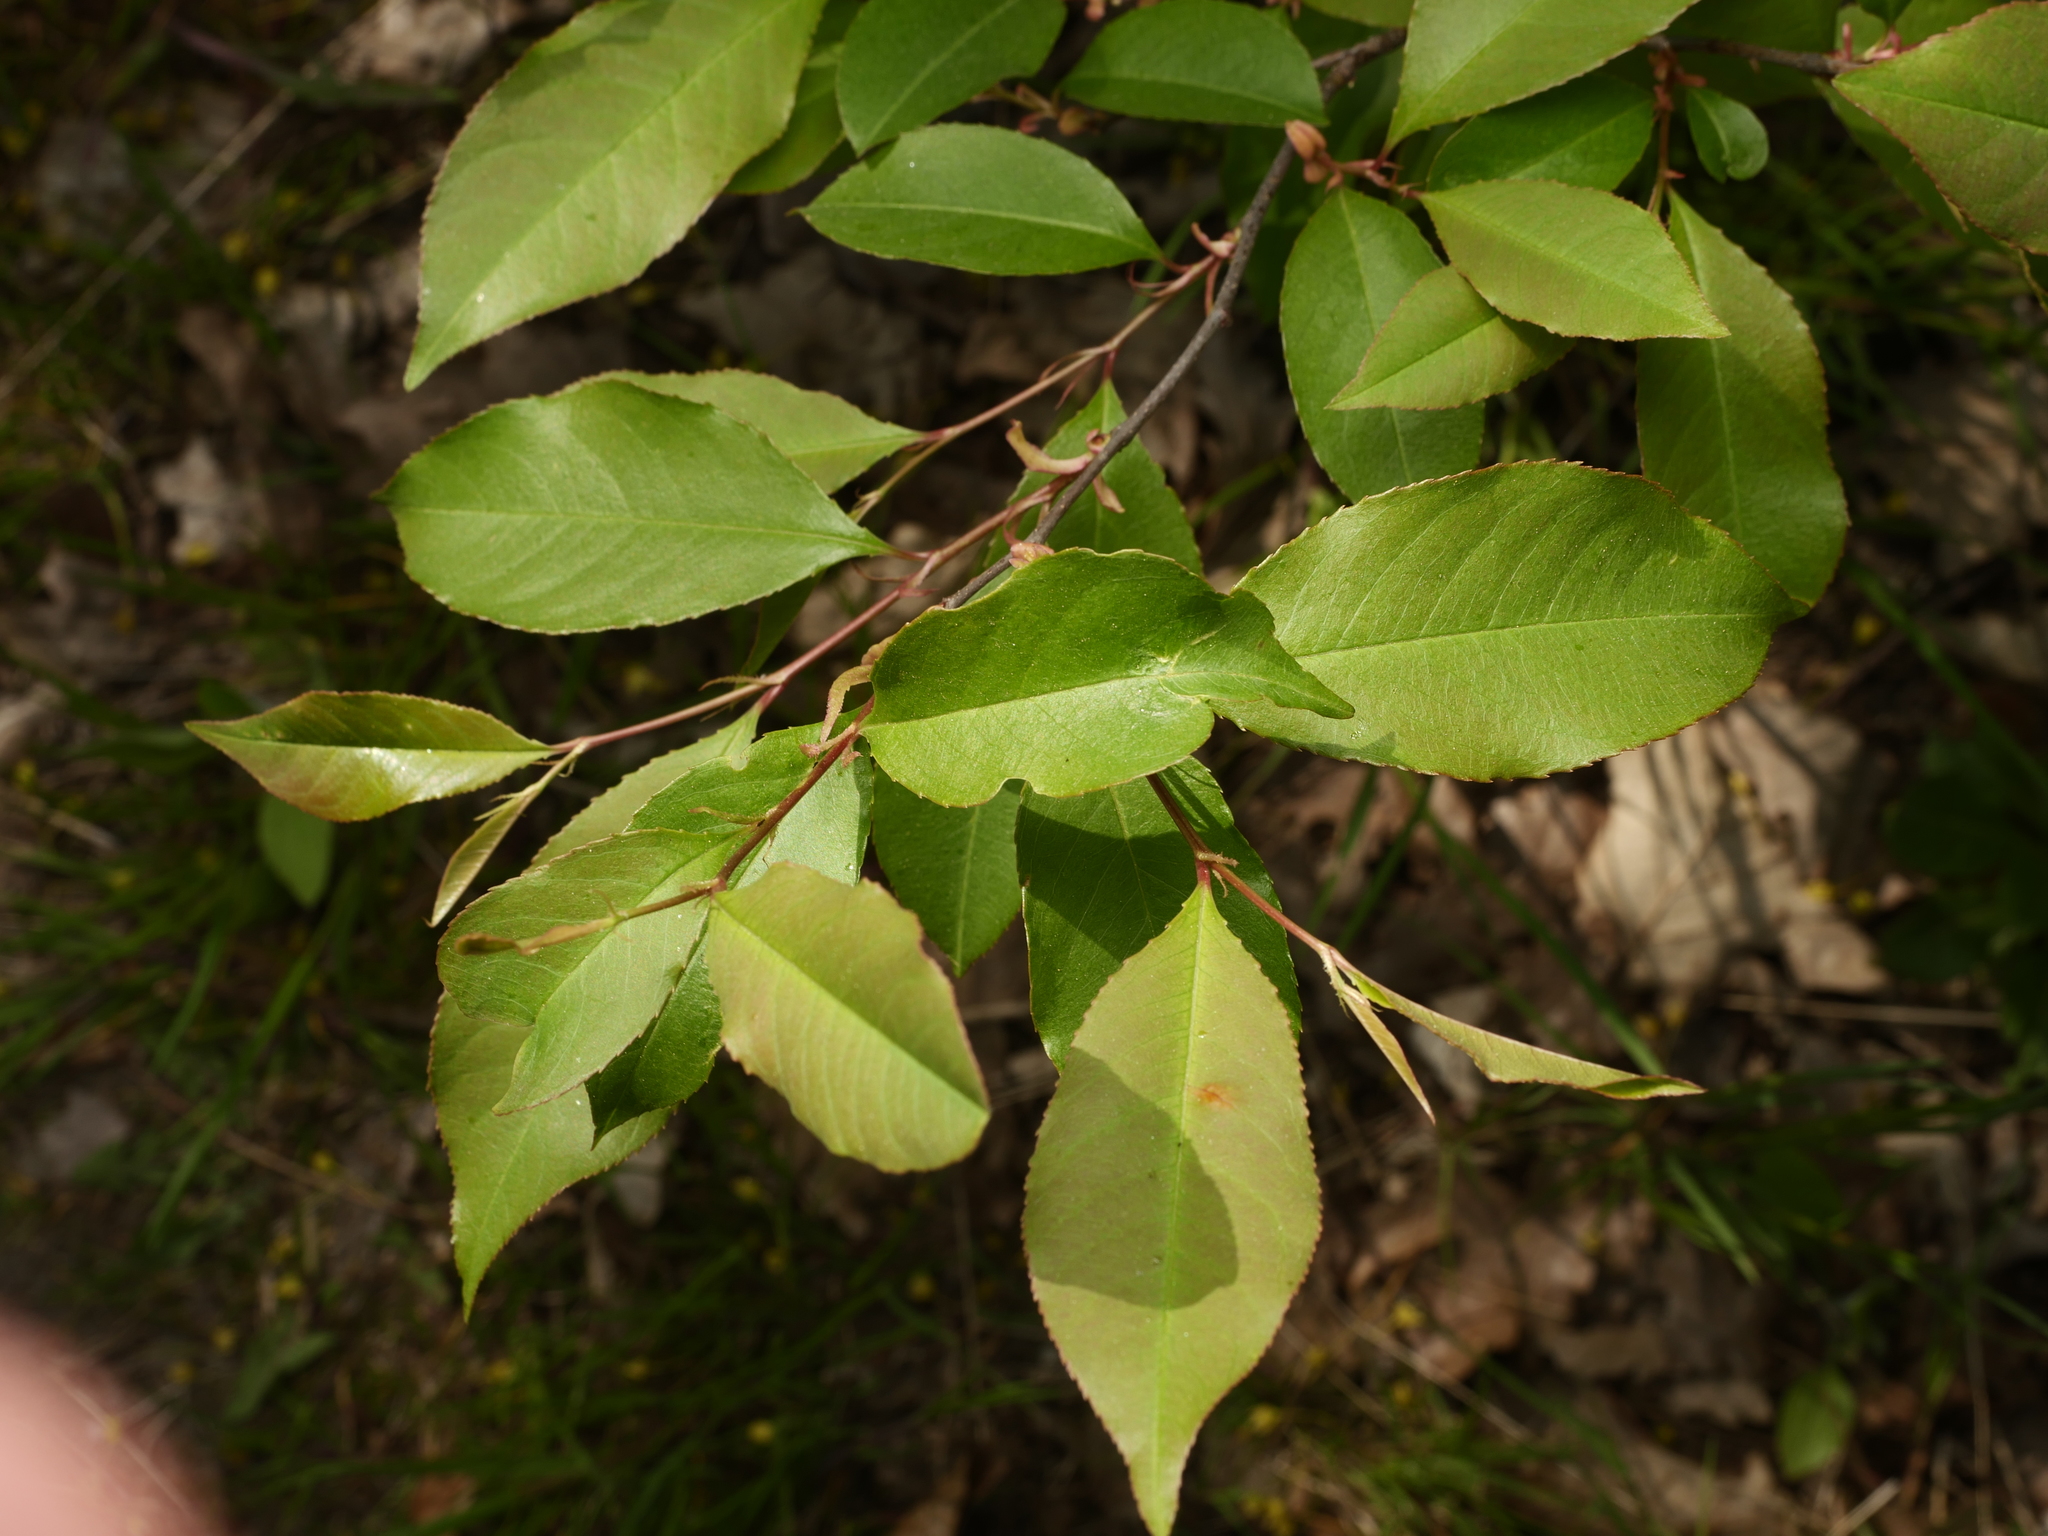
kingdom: Plantae
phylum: Tracheophyta
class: Magnoliopsida
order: Rosales
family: Rosaceae
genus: Prunus
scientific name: Prunus serotina
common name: Black cherry
